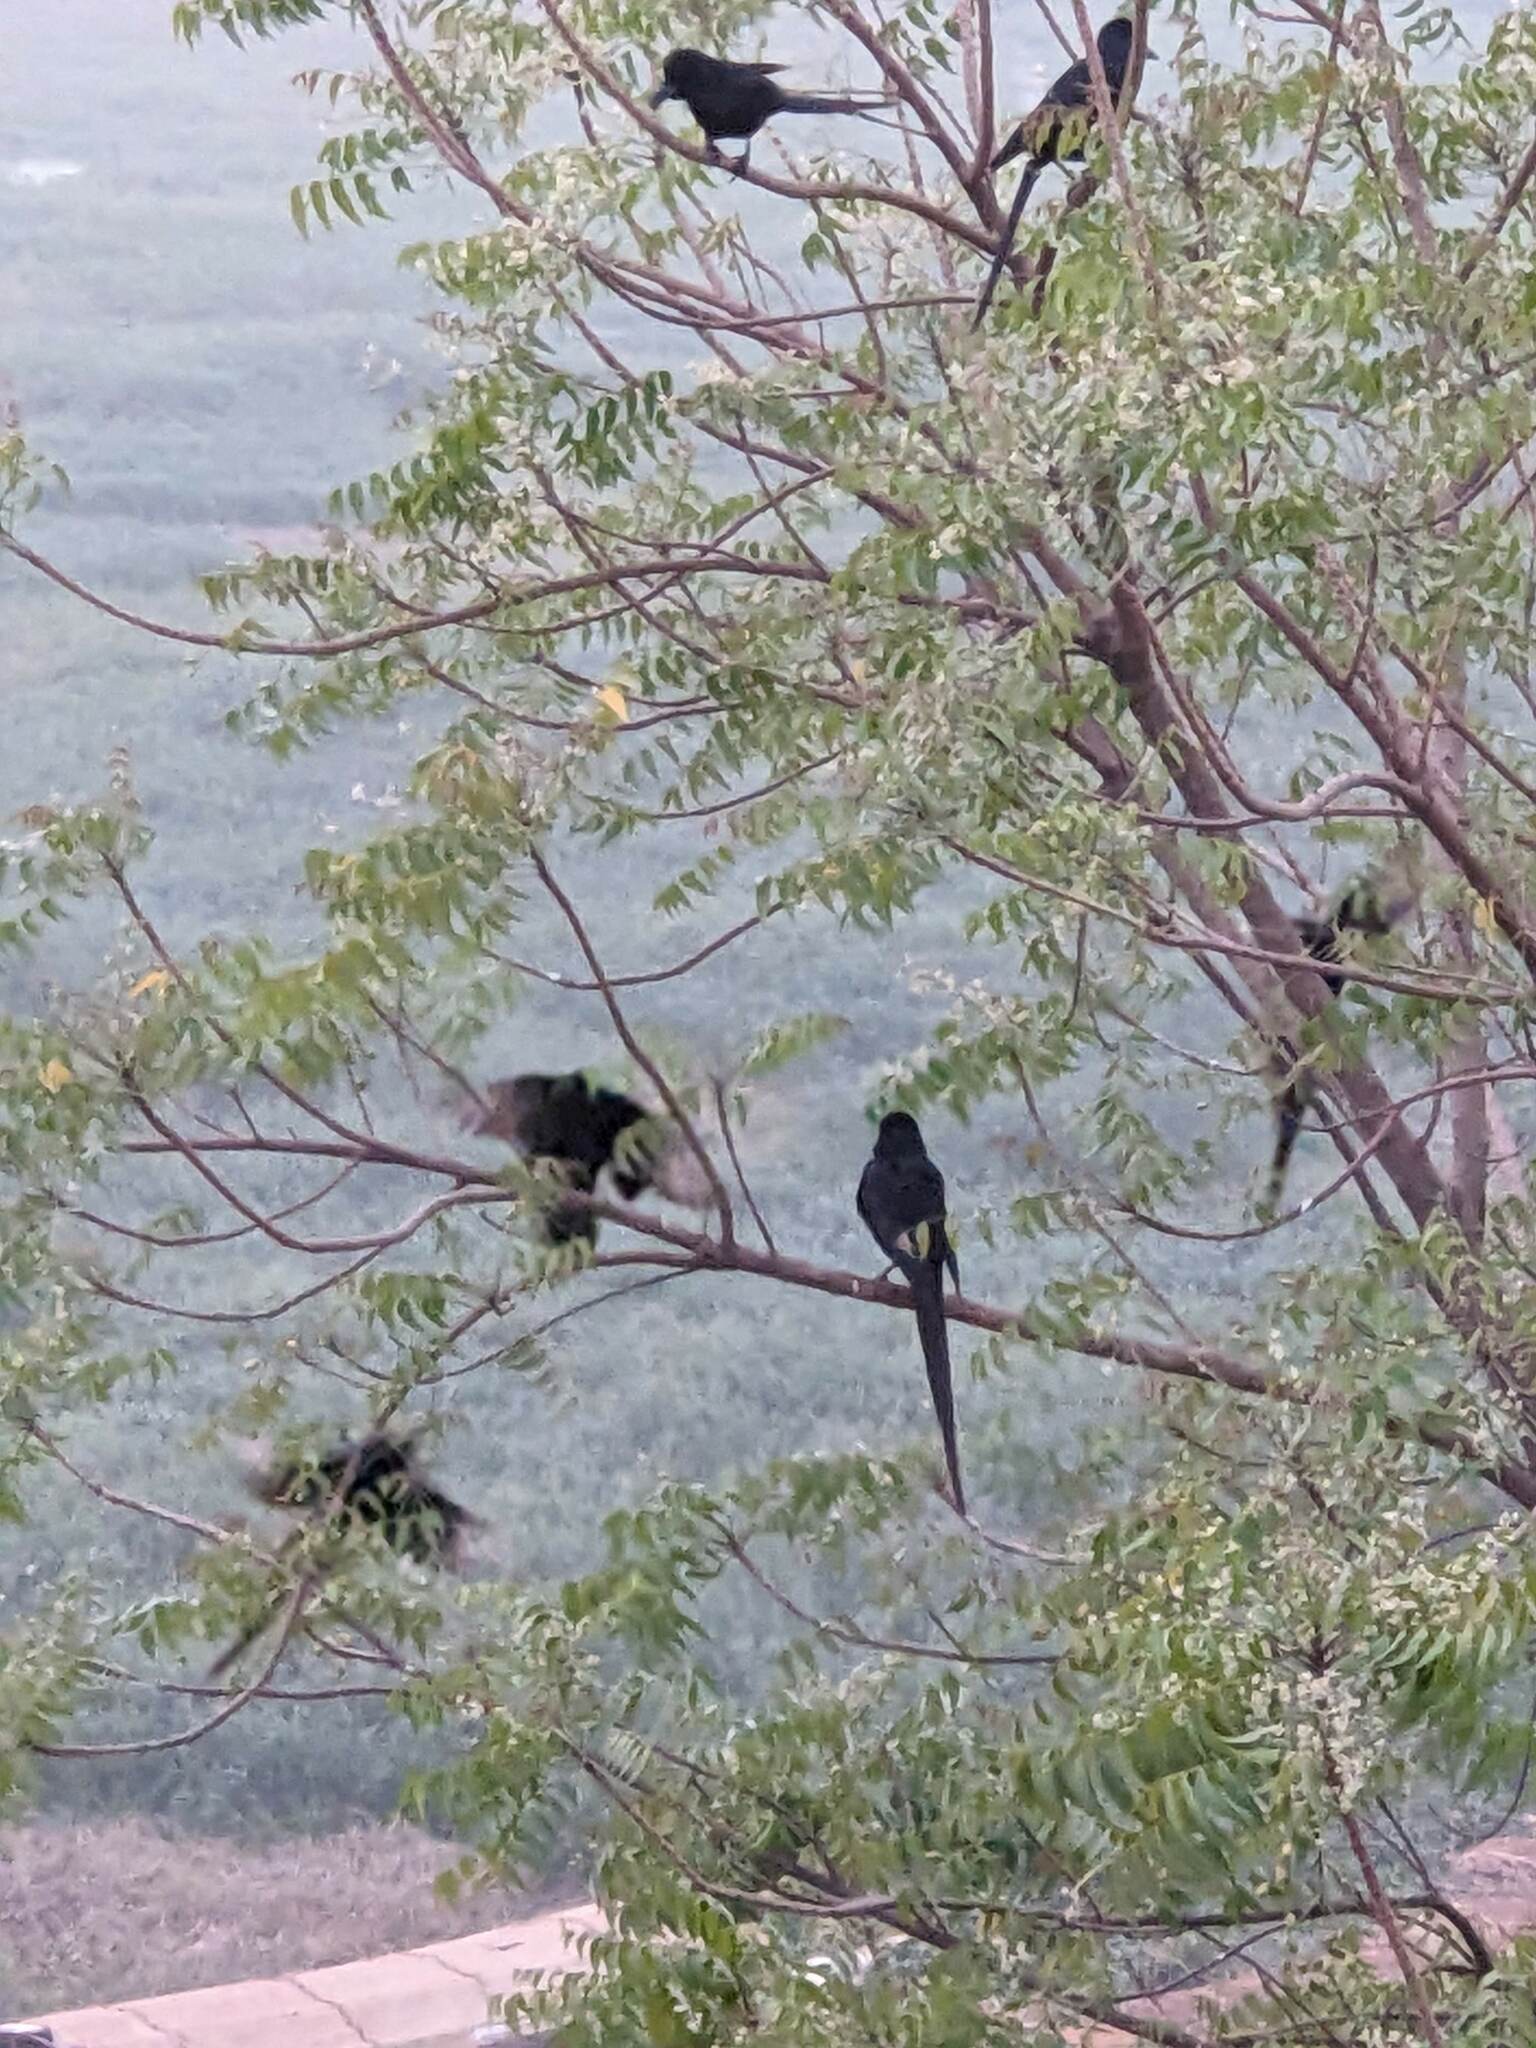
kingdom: Animalia
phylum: Chordata
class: Aves
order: Passeriformes
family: Corvidae
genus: Ptilostomus
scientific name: Ptilostomus afer
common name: Piapiac
